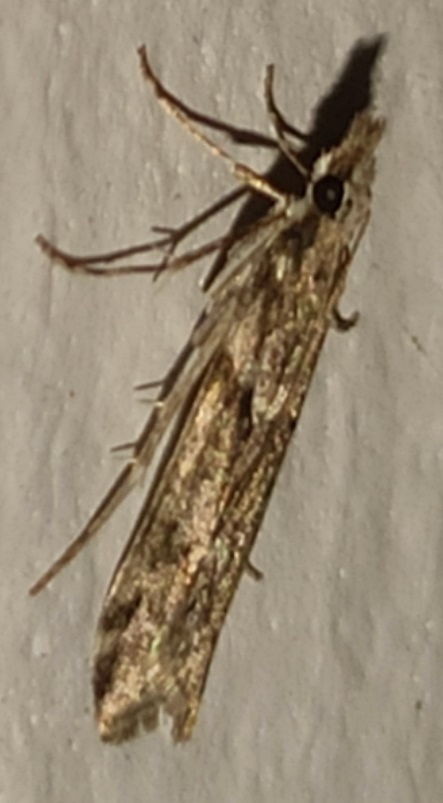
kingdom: Animalia
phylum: Arthropoda
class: Insecta
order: Lepidoptera
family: Crambidae
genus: Eudonia
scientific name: Eudonia angustea
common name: Narrow-winged grey
